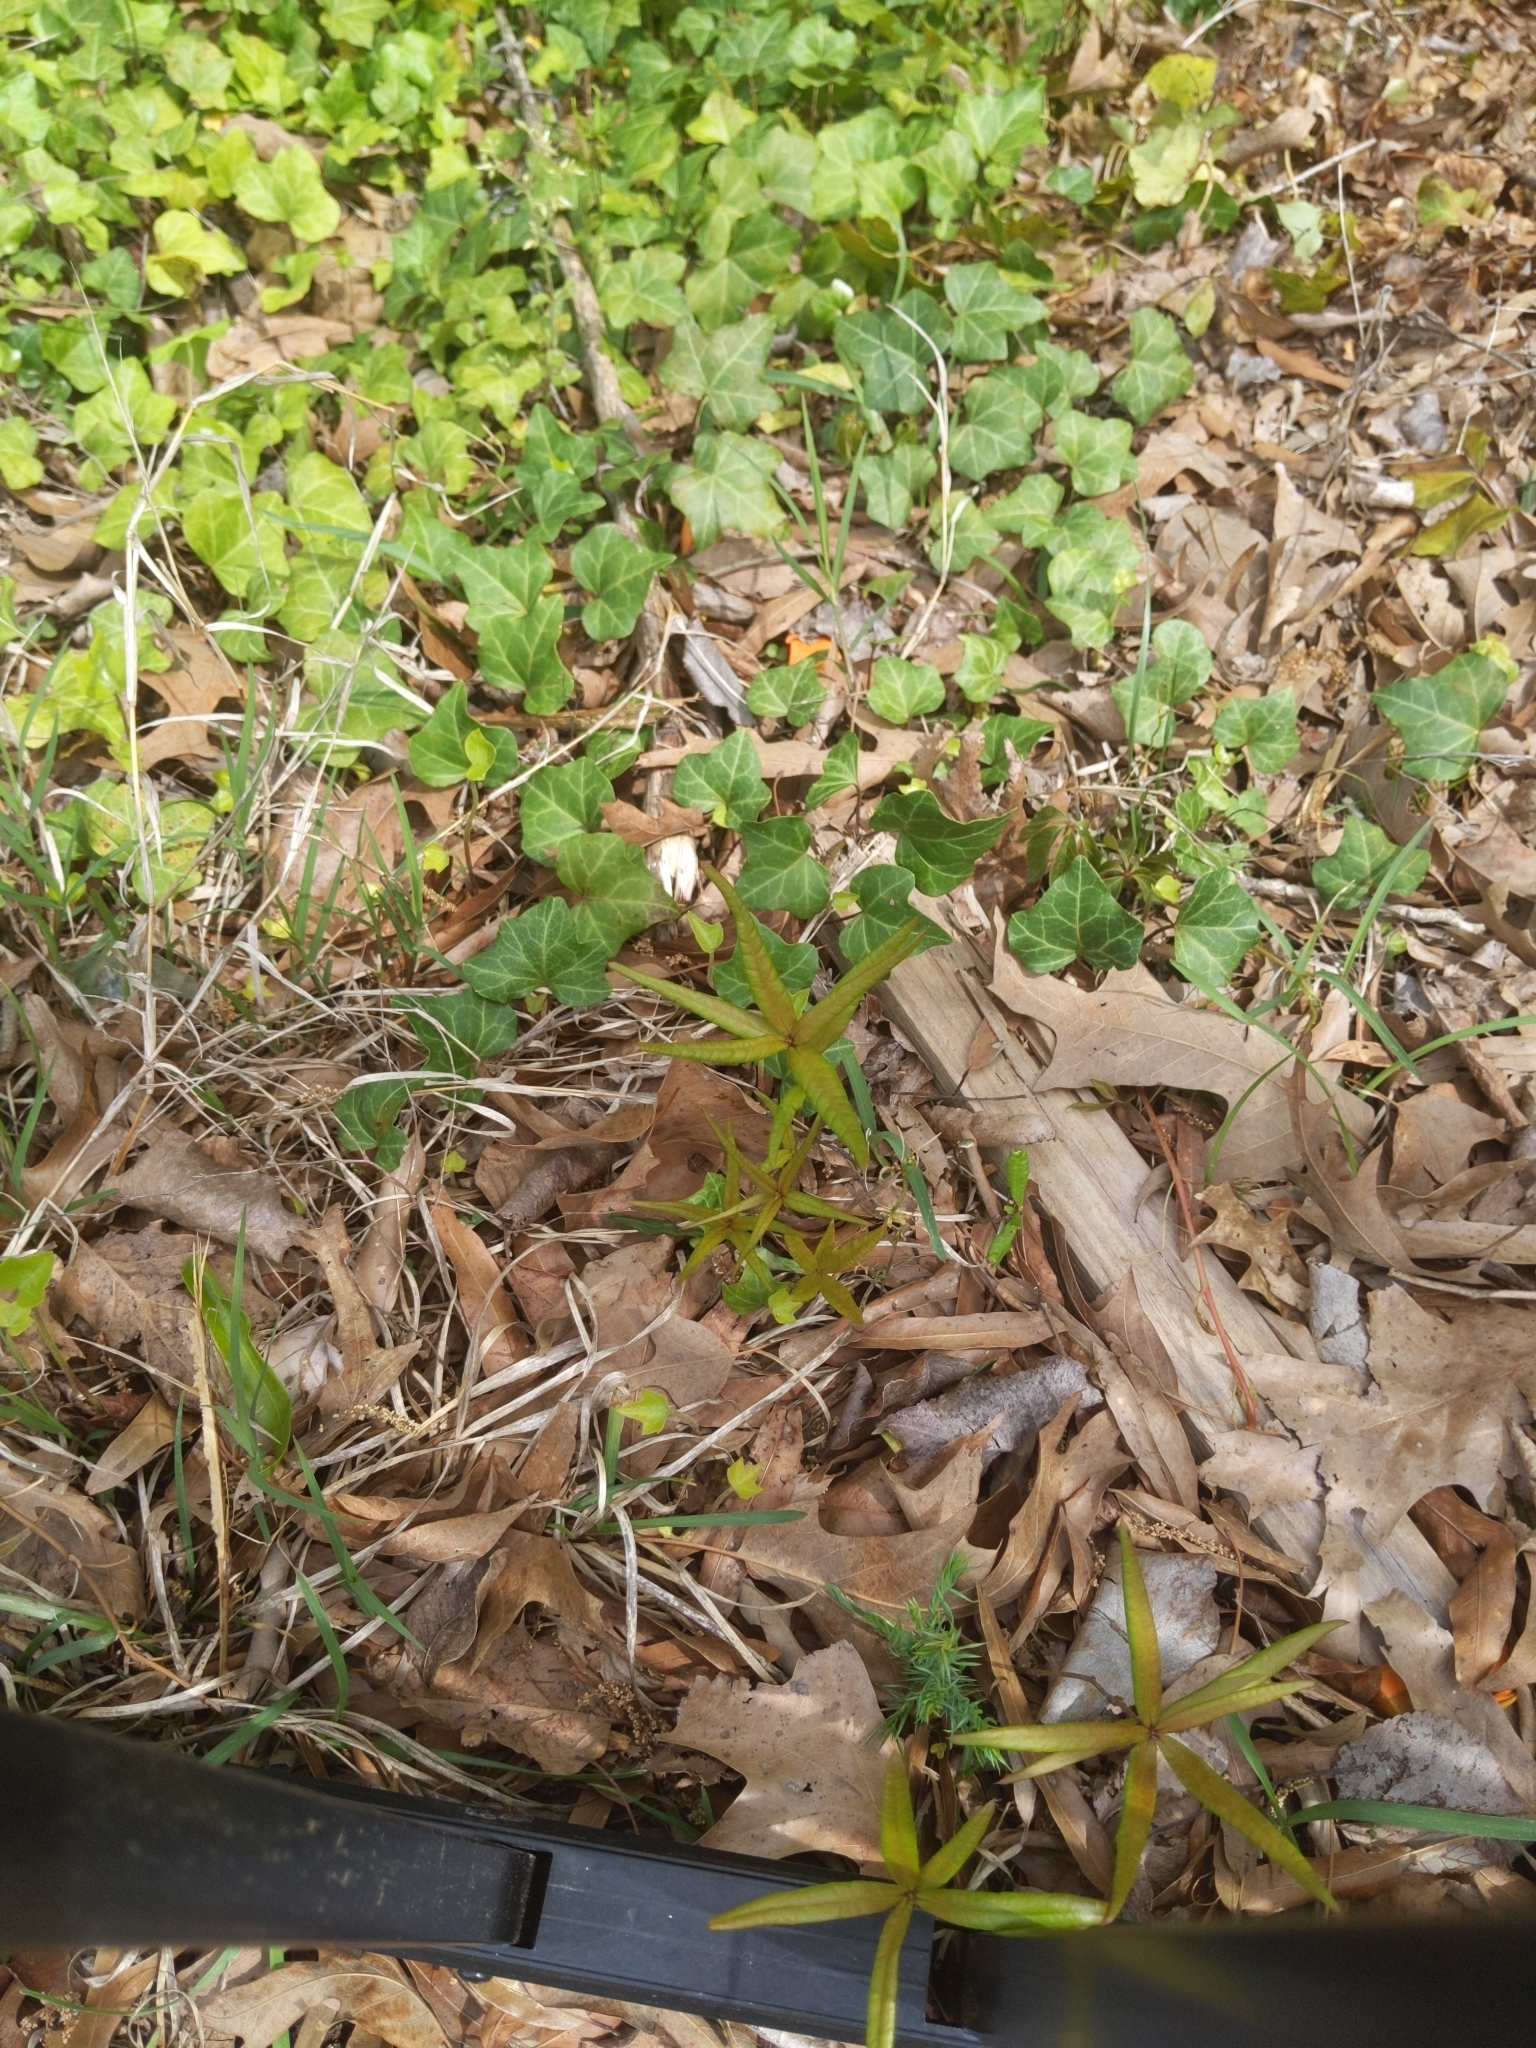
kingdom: Plantae
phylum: Tracheophyta
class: Magnoliopsida
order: Fagales
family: Fagaceae
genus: Quercus
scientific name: Quercus phellos
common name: Willow oak
